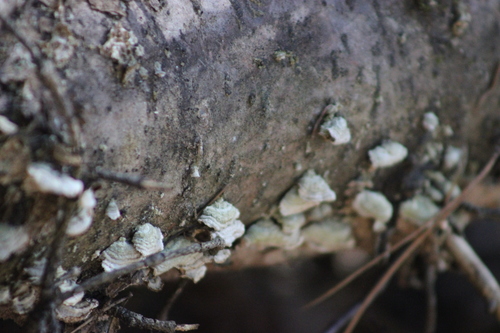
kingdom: Fungi
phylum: Basidiomycota
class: Agaricomycetes
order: Hymenochaetales
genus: Trichaptum
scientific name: Trichaptum
